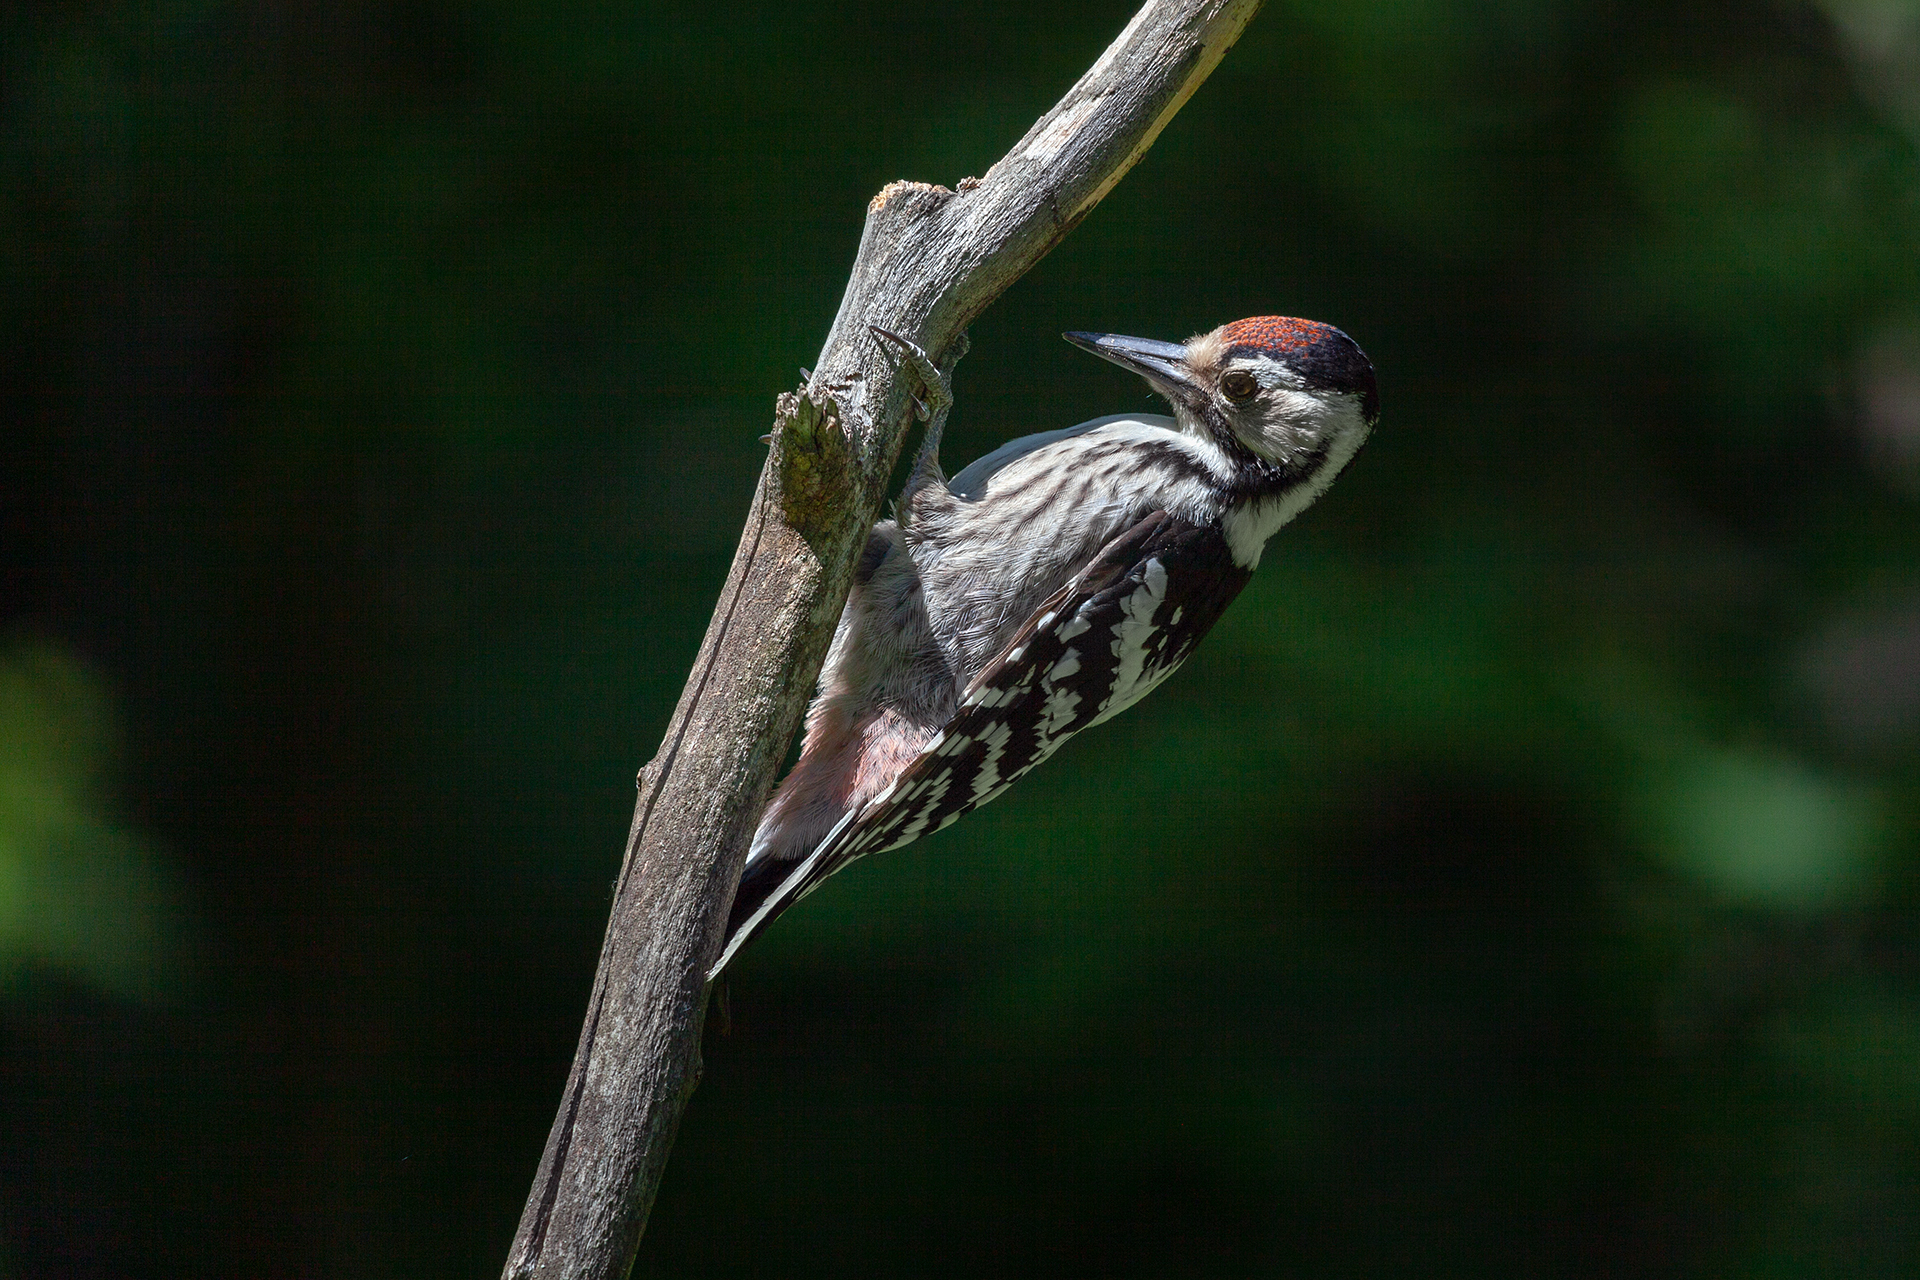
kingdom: Animalia
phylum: Chordata
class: Aves
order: Piciformes
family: Picidae
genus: Dendrocopos
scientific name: Dendrocopos leucotos
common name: White-backed woodpecker
